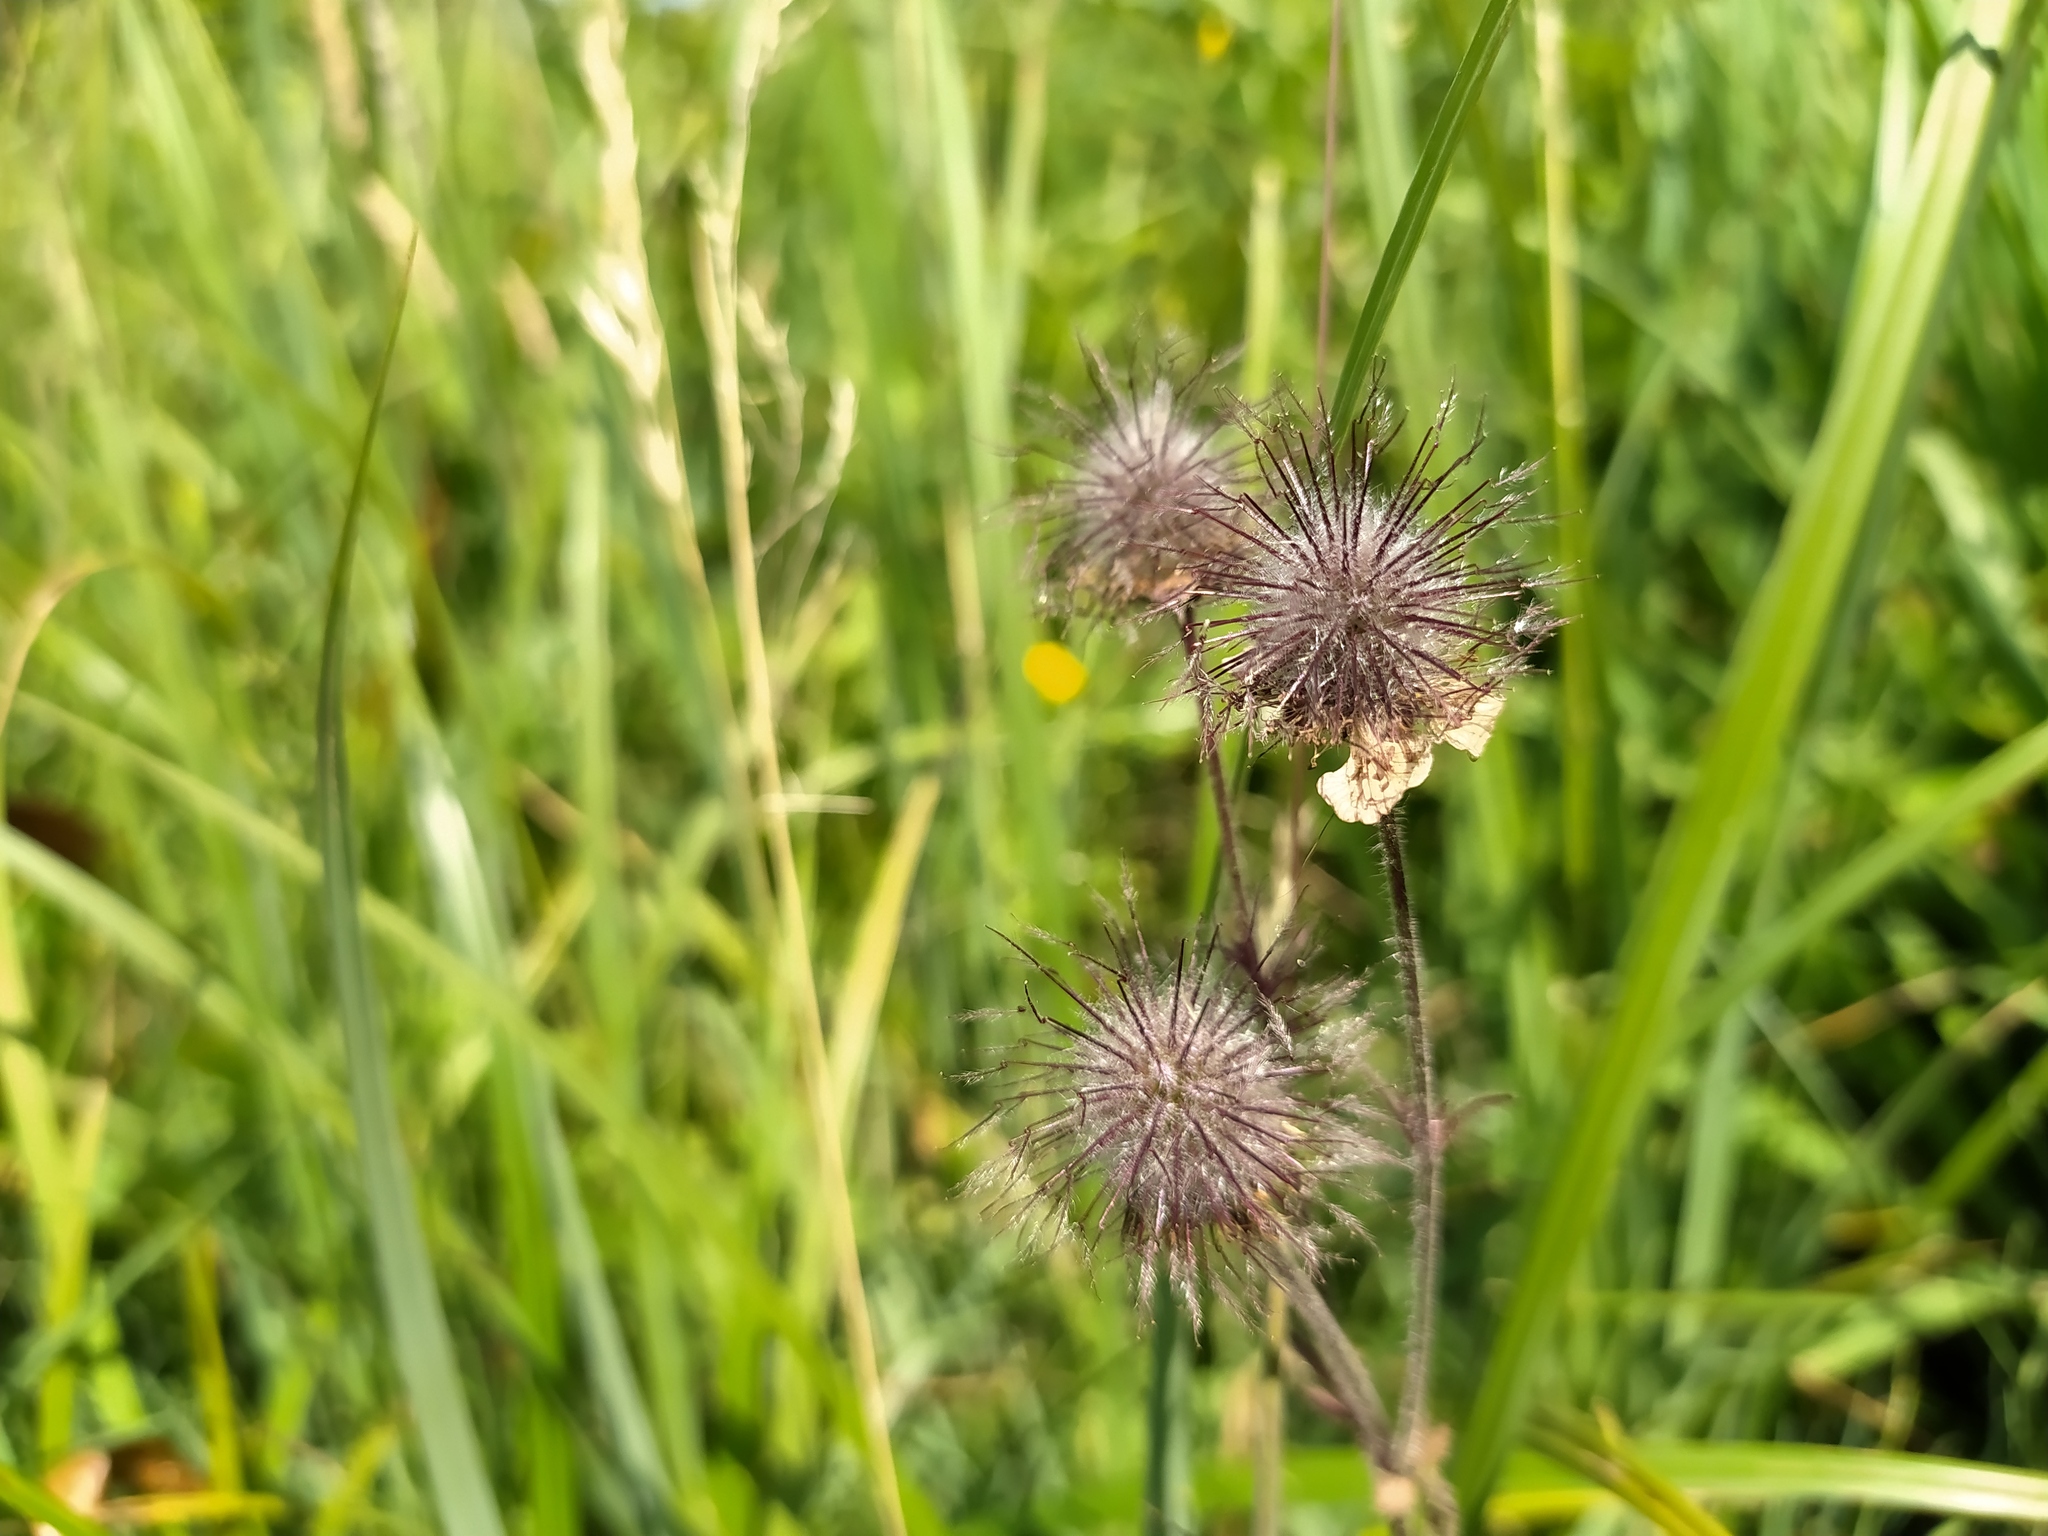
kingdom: Plantae
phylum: Tracheophyta
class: Magnoliopsida
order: Rosales
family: Rosaceae
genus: Geum
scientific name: Geum rivale
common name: Water avens
